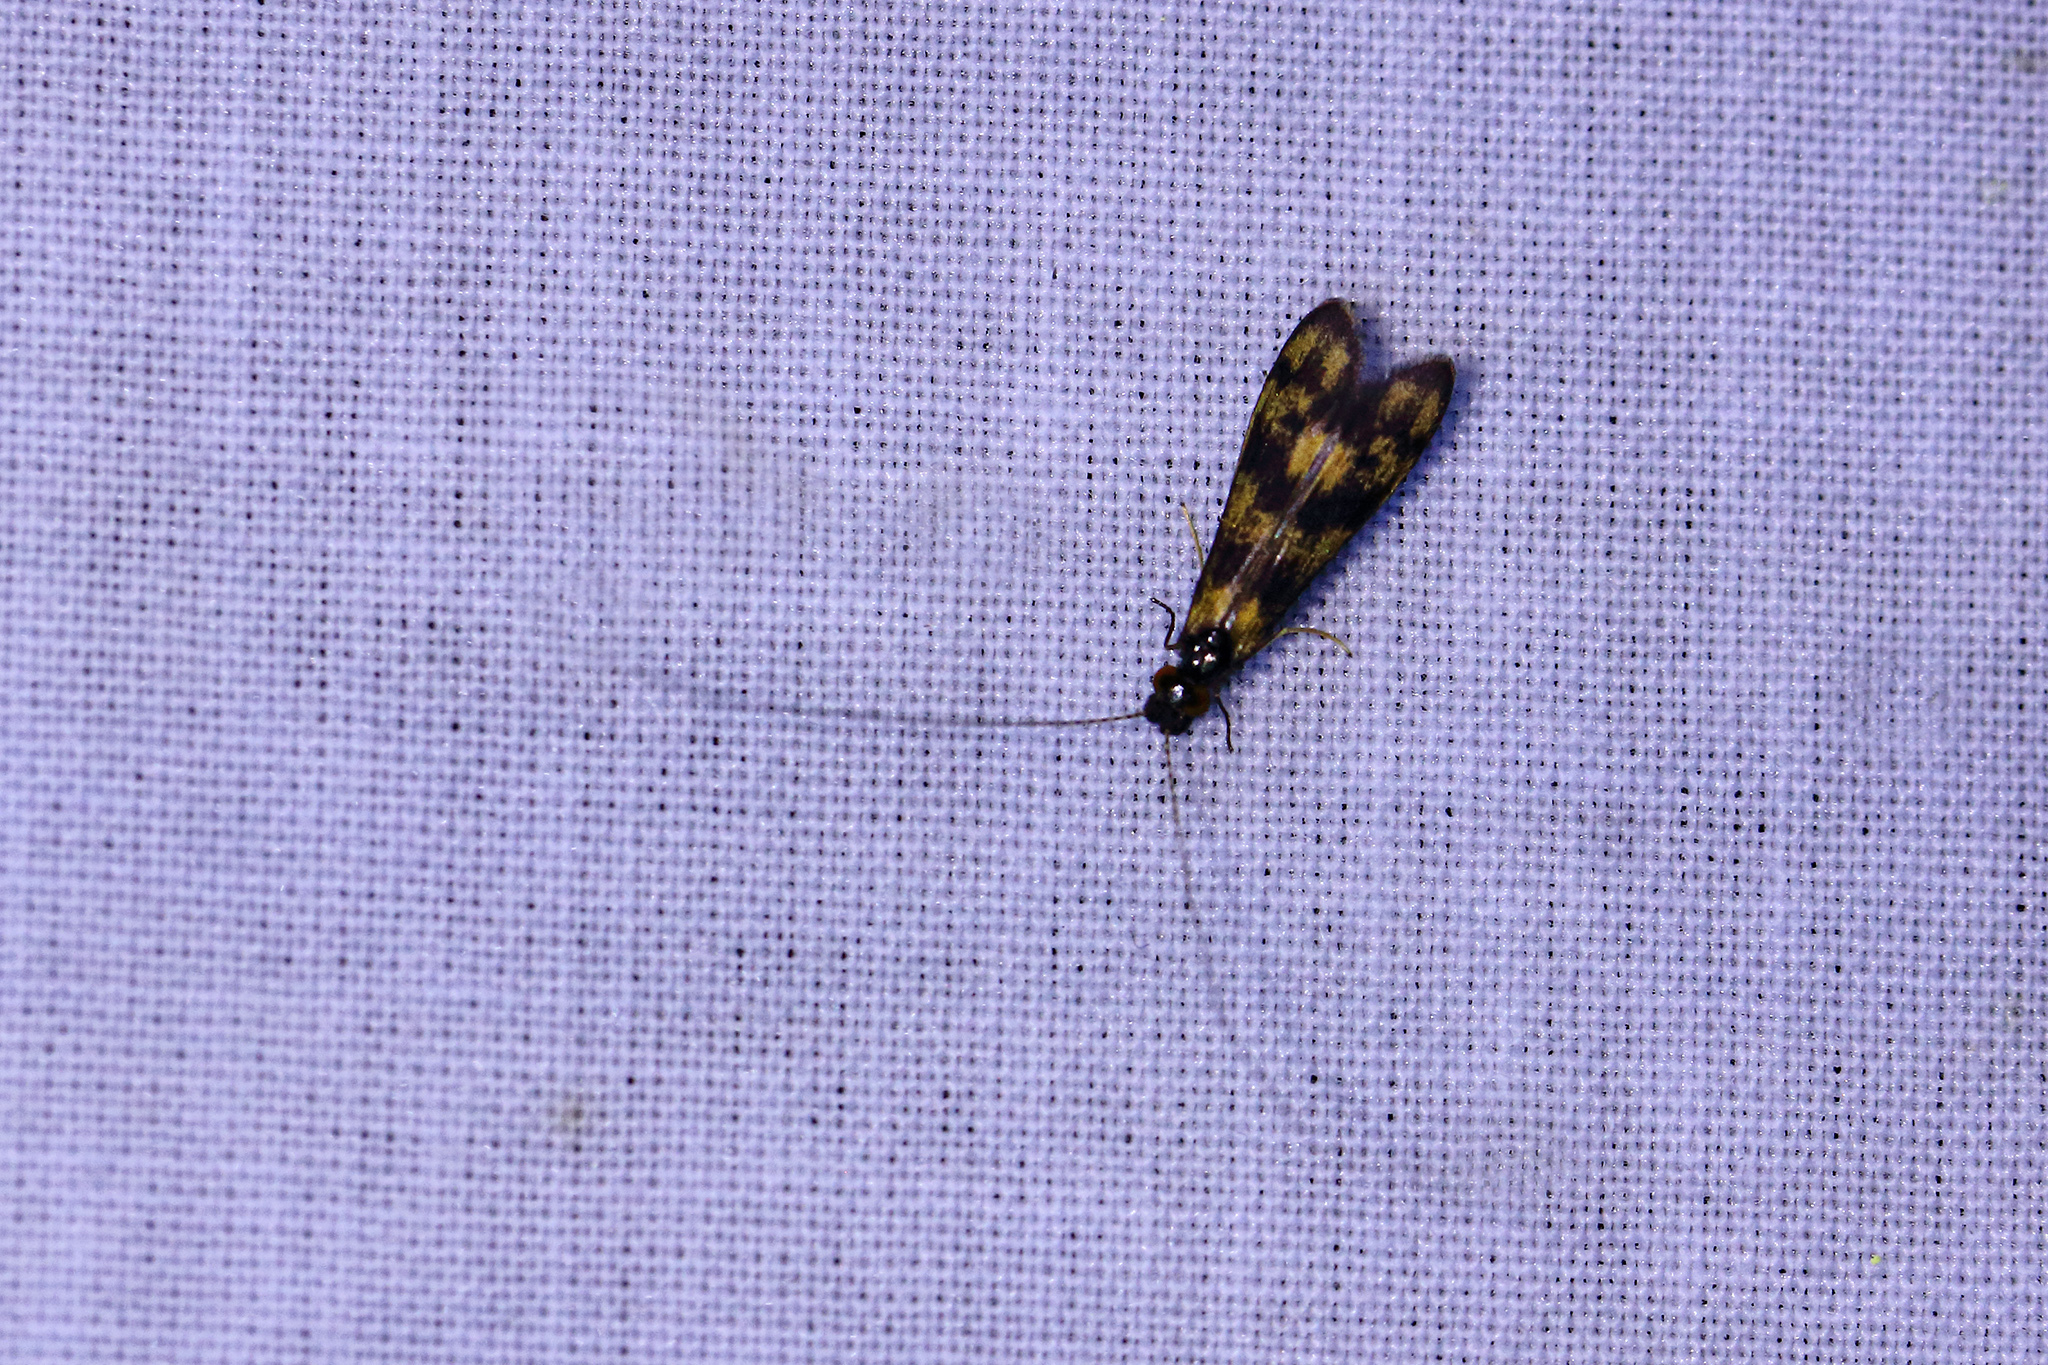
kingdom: Animalia
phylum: Arthropoda
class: Insecta
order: Trichoptera
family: Leptoceridae
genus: Mystacides
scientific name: Mystacides longicornis
